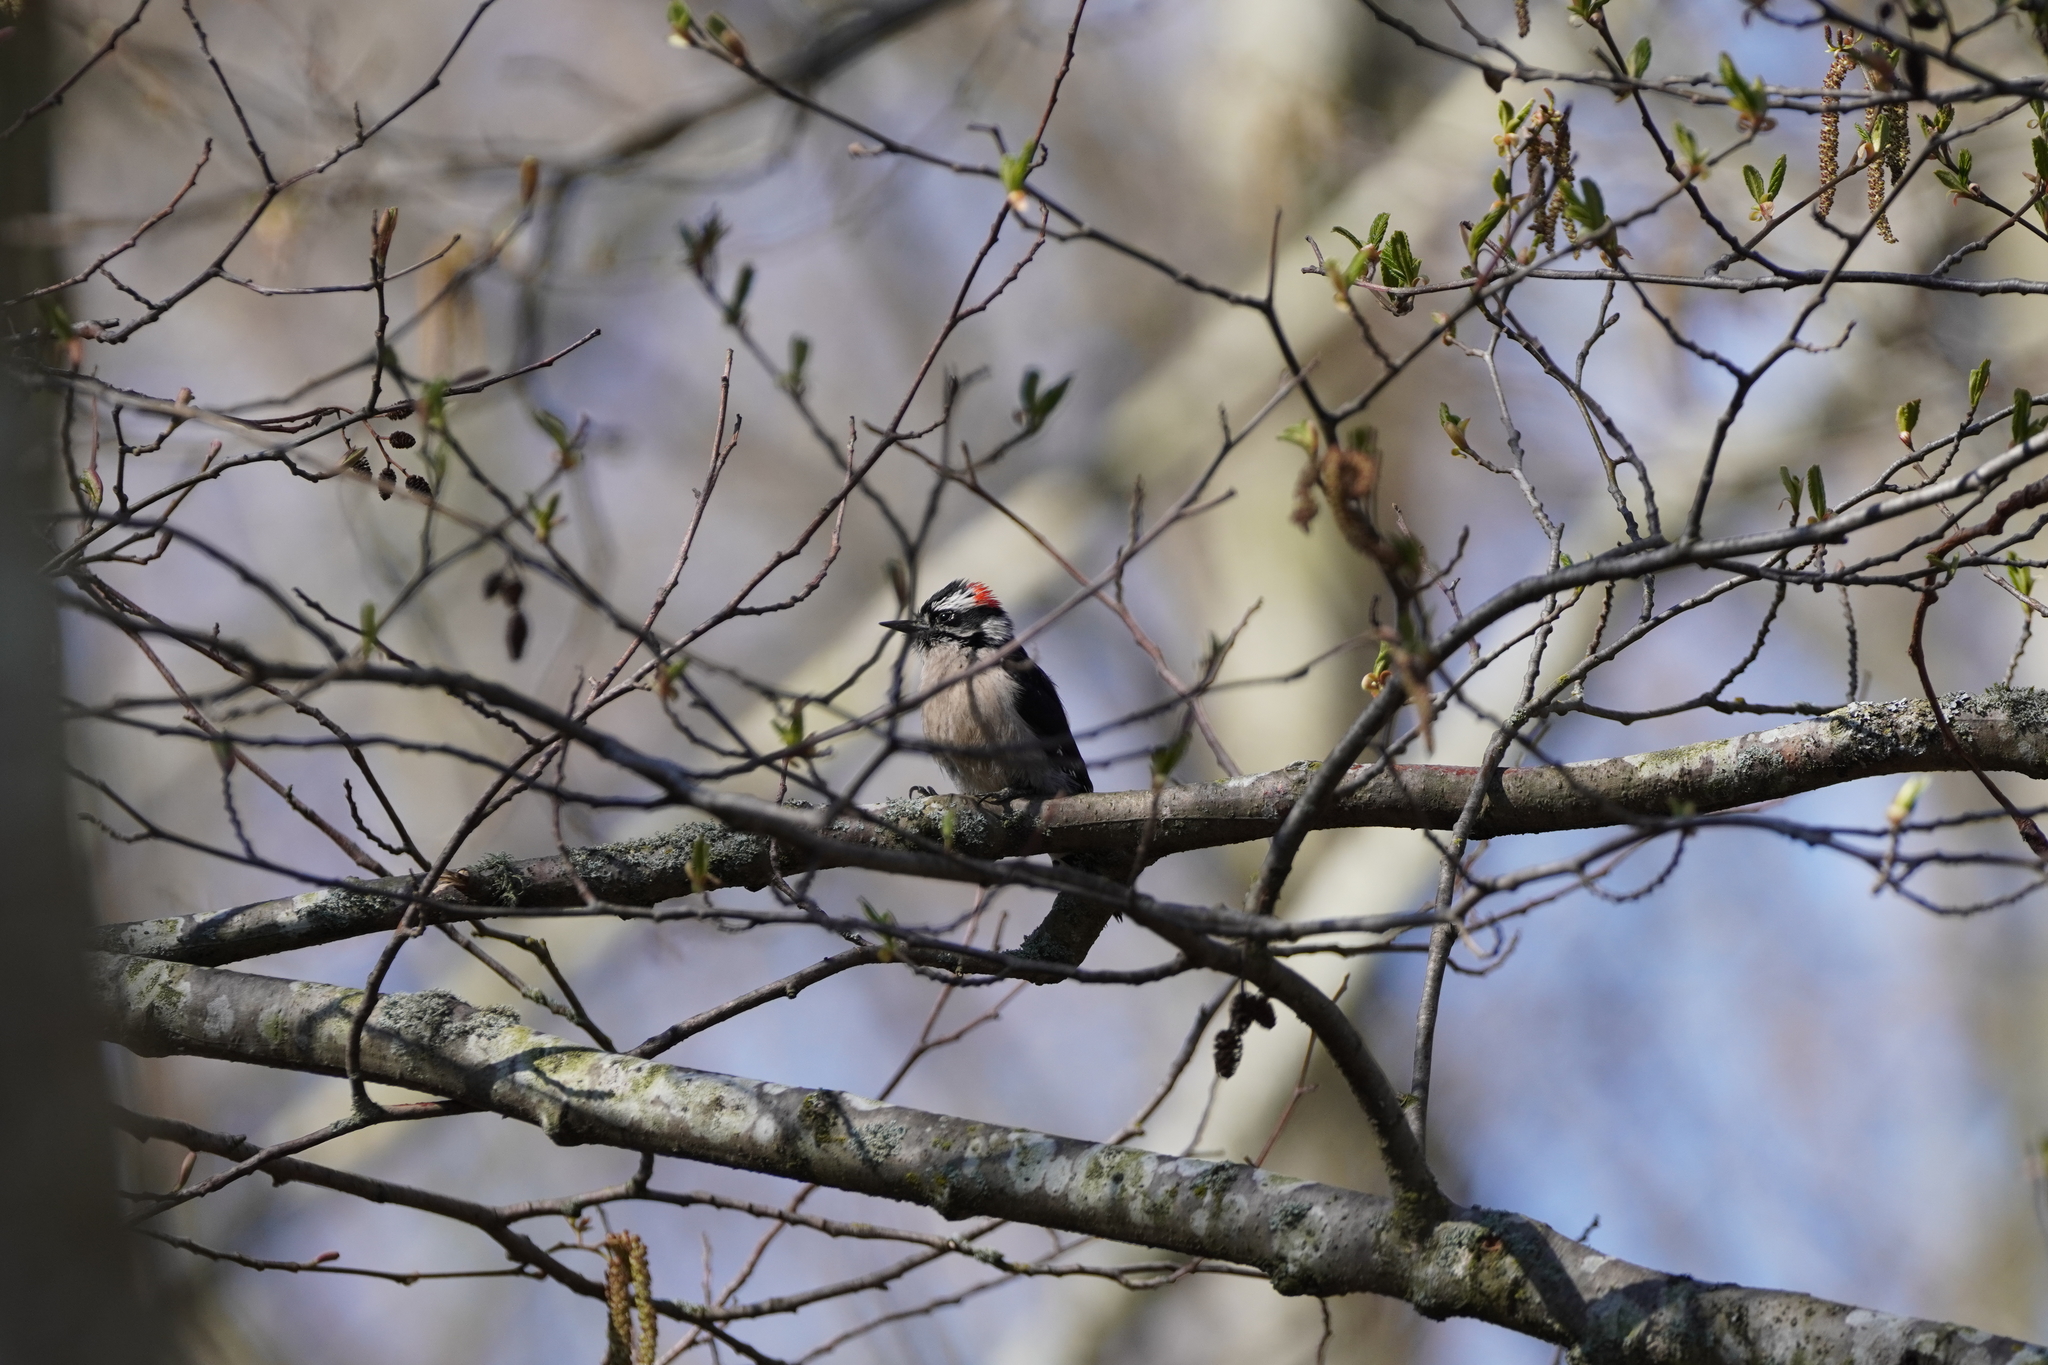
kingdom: Animalia
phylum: Chordata
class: Aves
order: Piciformes
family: Picidae
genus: Dryobates
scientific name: Dryobates pubescens
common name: Downy woodpecker
